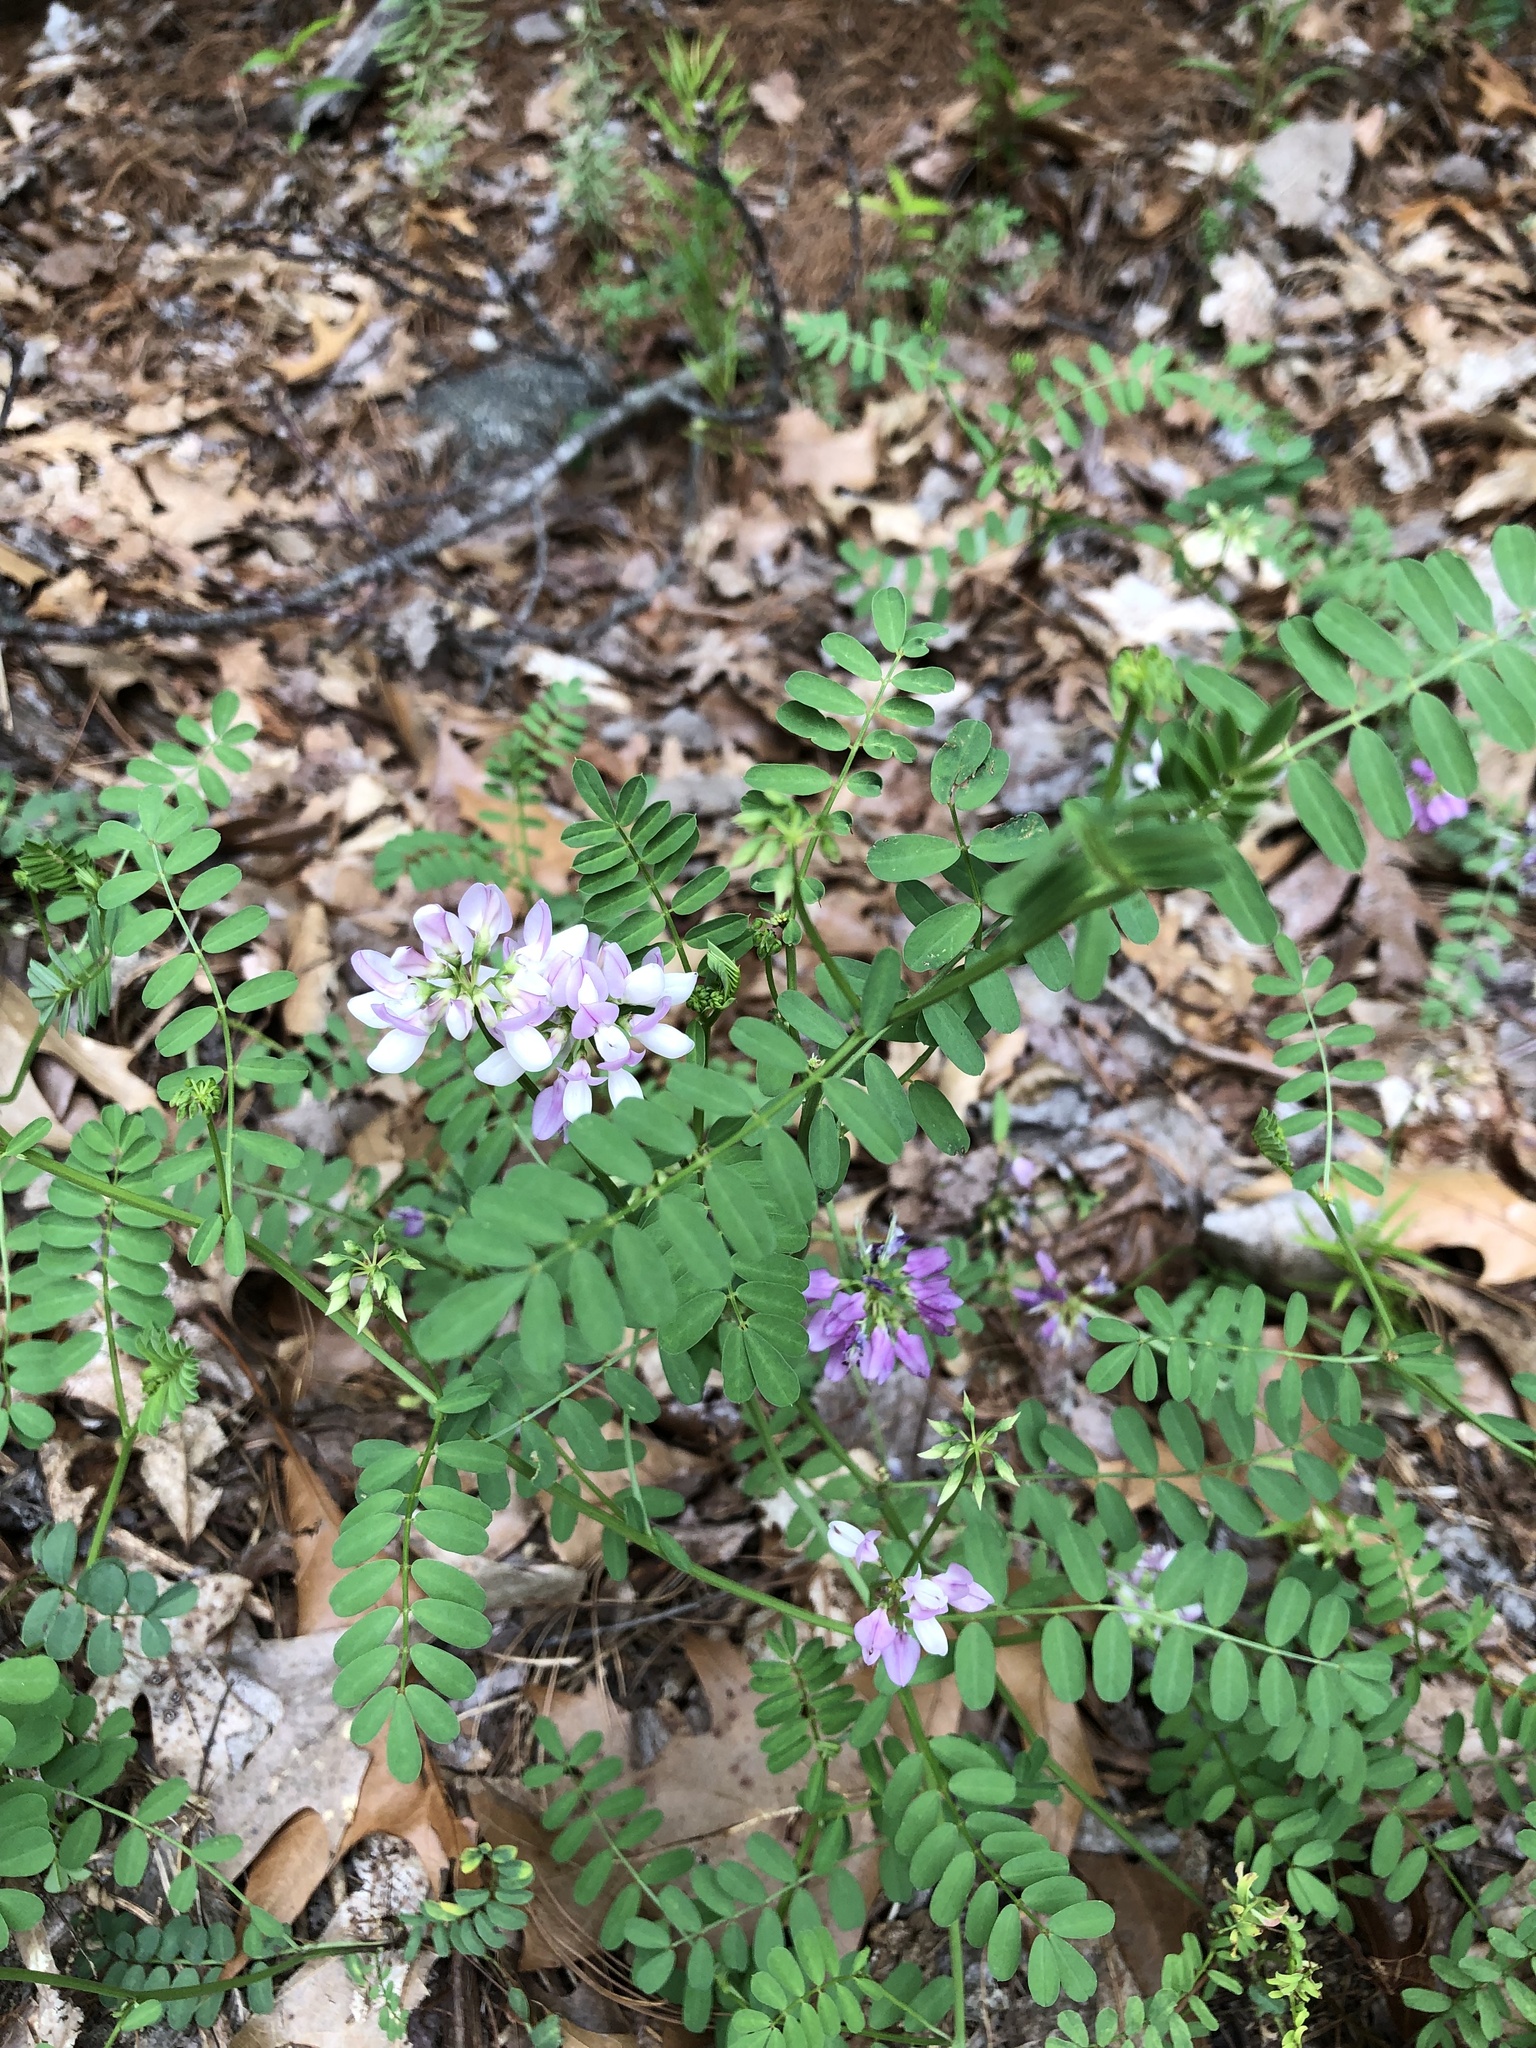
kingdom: Plantae
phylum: Tracheophyta
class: Magnoliopsida
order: Fabales
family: Fabaceae
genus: Coronilla
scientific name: Coronilla varia
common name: Crownvetch
